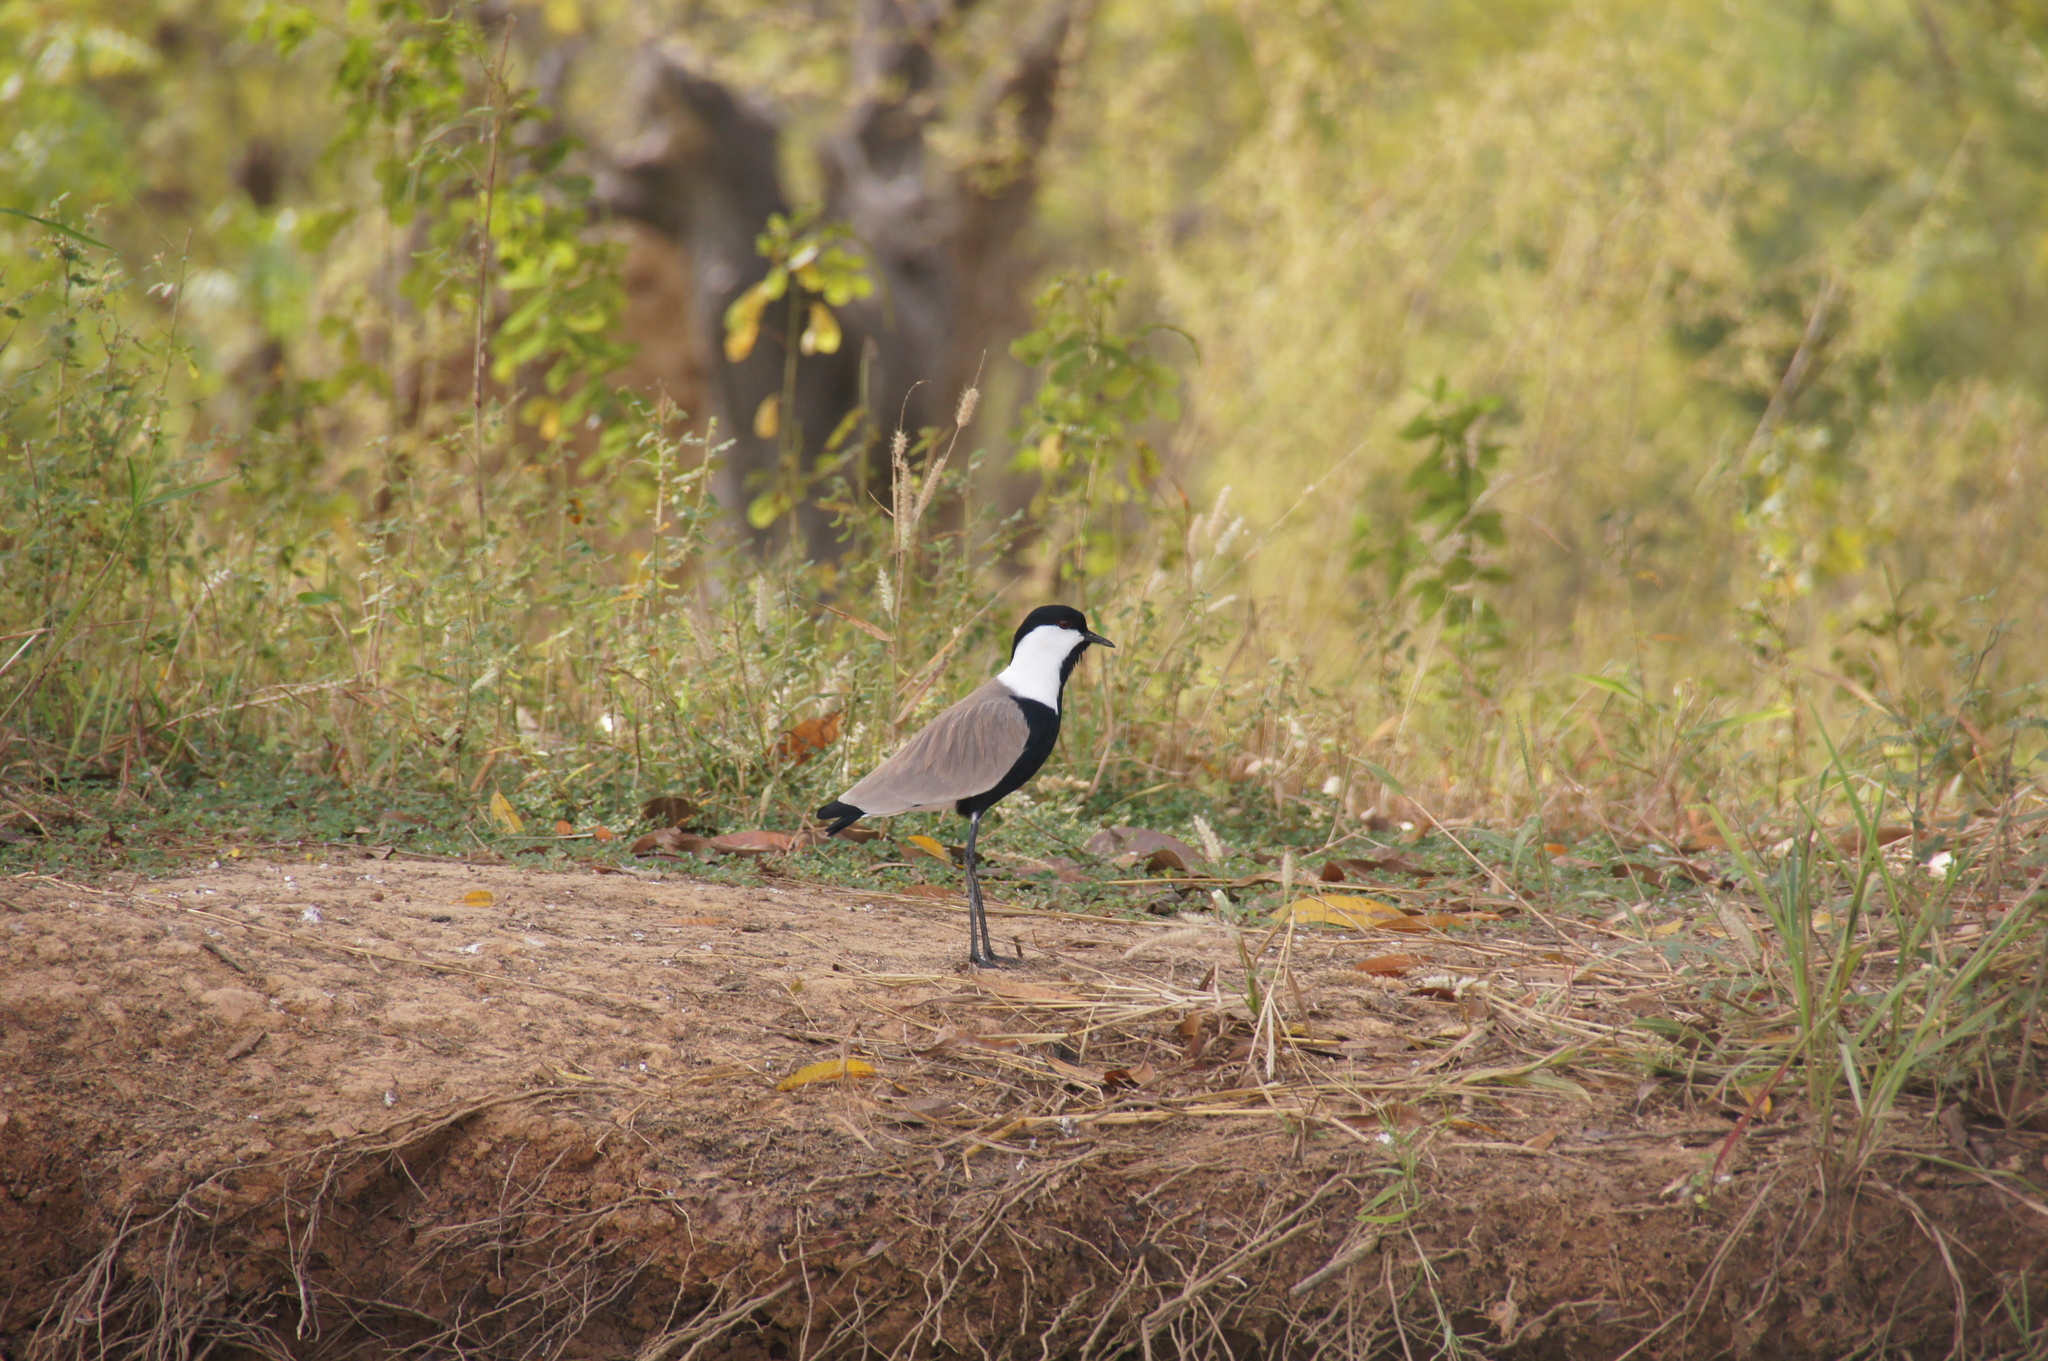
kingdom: Animalia
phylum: Chordata
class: Aves
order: Charadriiformes
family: Charadriidae
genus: Vanellus
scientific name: Vanellus spinosus
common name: Spur-winged lapwing
